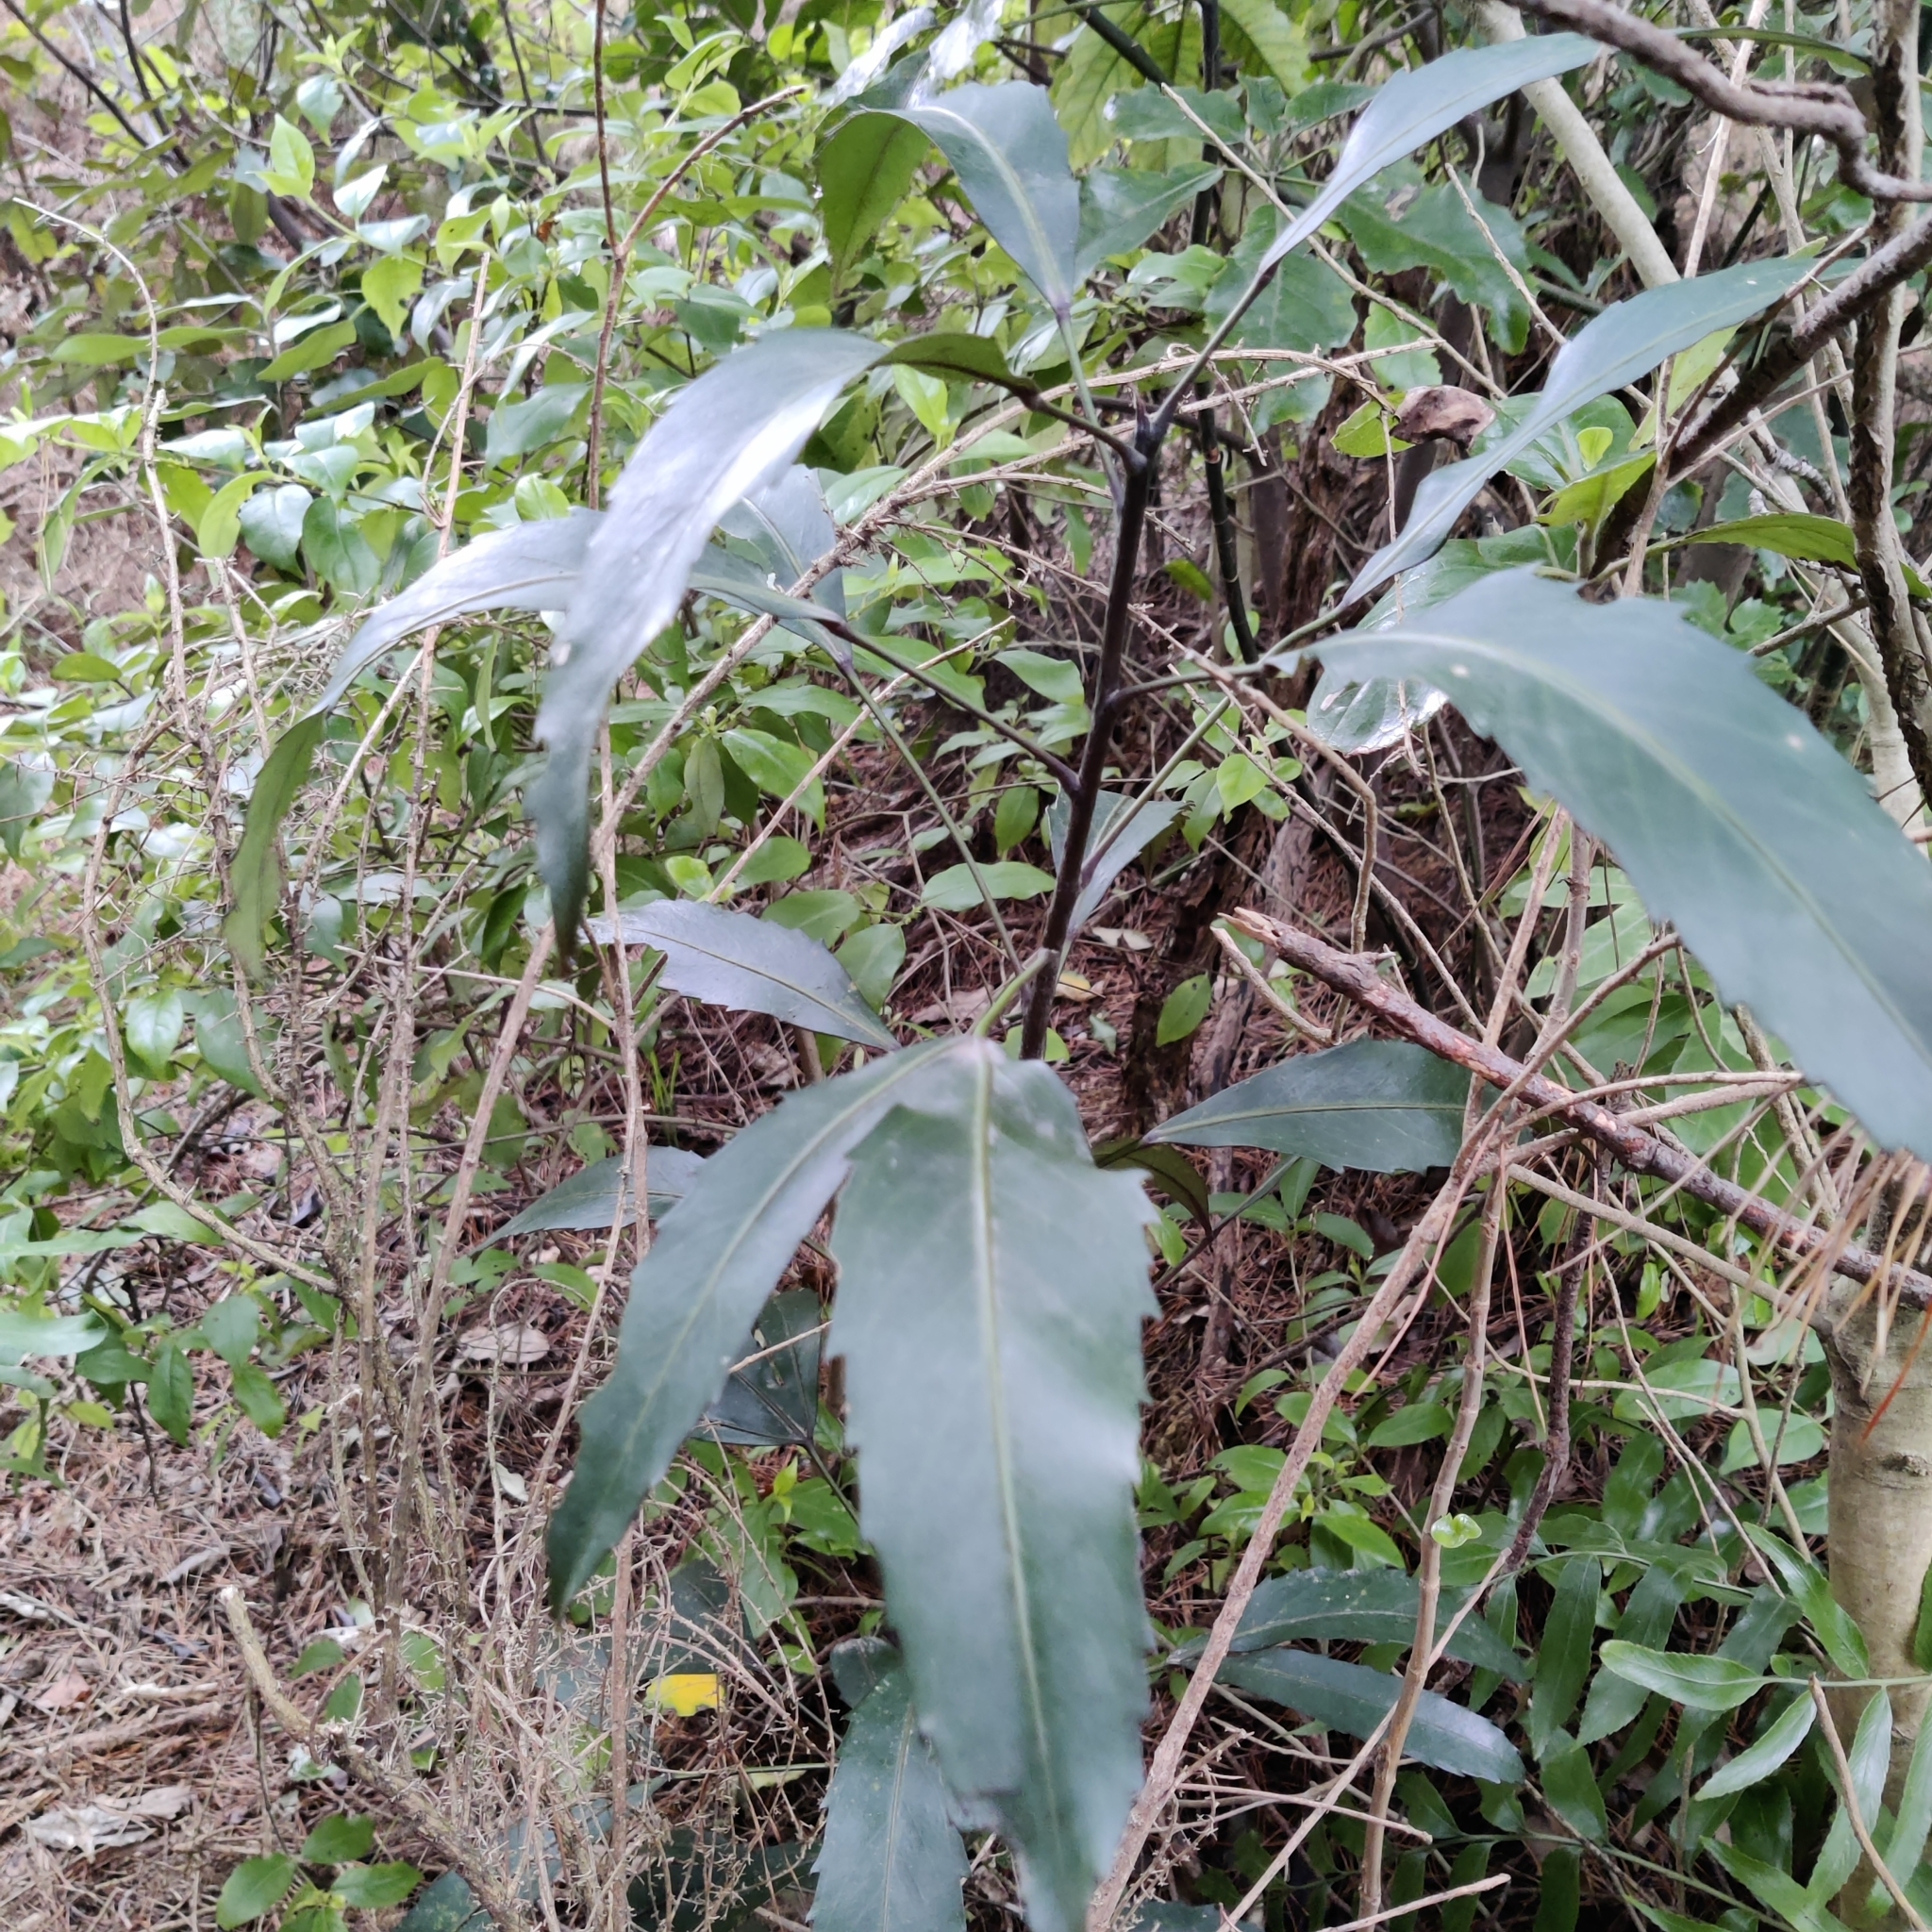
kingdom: Plantae
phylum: Tracheophyta
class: Magnoliopsida
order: Apiales
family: Araliaceae
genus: Pseudopanax
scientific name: Pseudopanax
